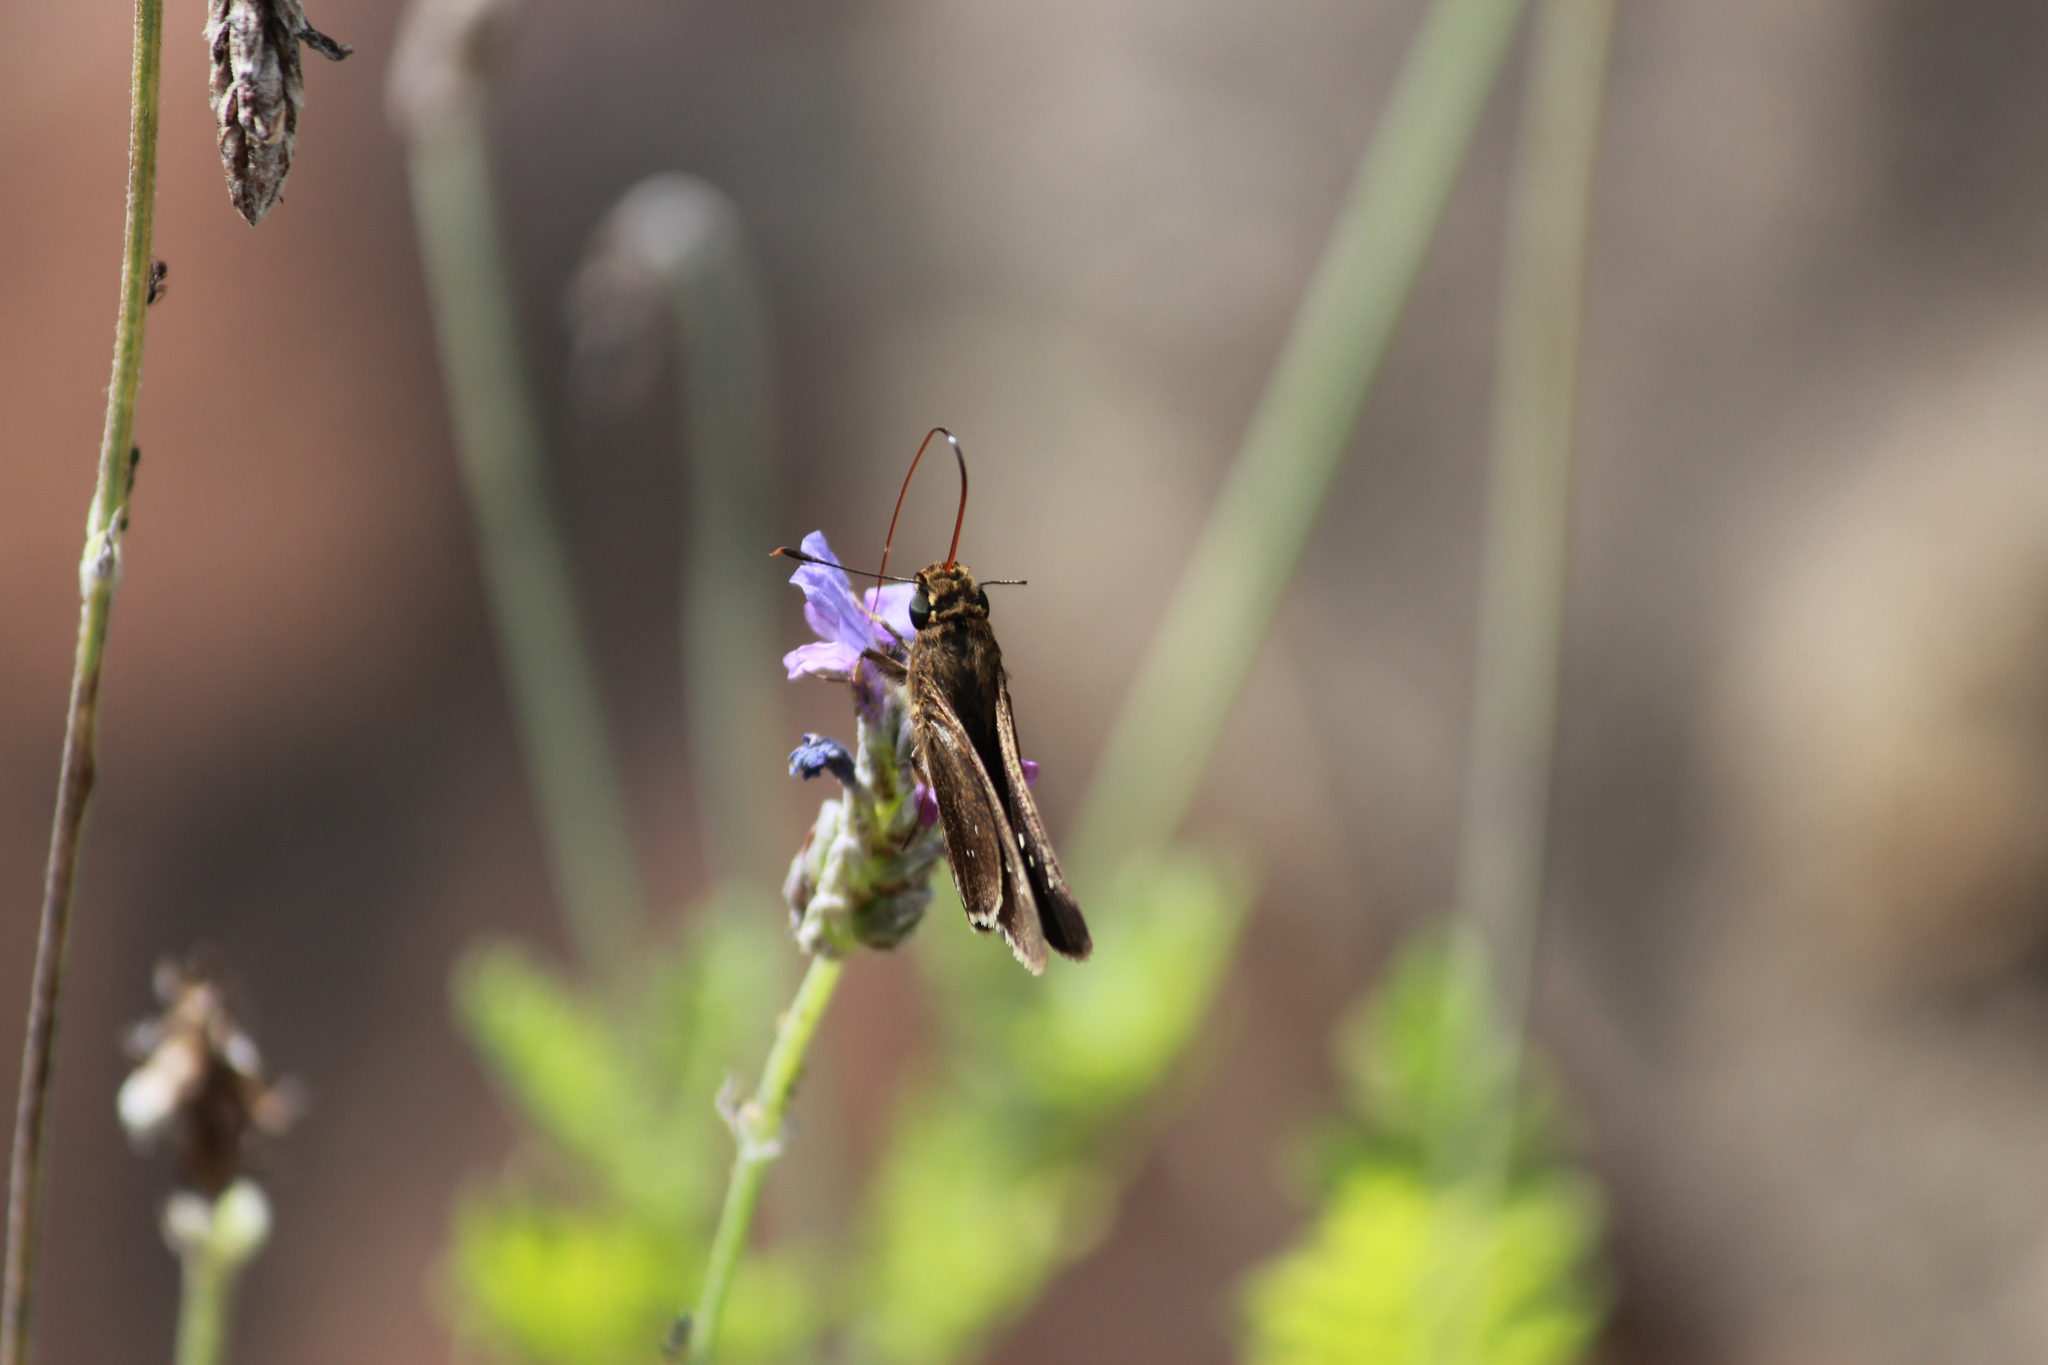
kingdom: Animalia
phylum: Arthropoda
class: Insecta
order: Lepidoptera
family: Hesperiidae
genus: Baoris
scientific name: Baoris fatuellus
